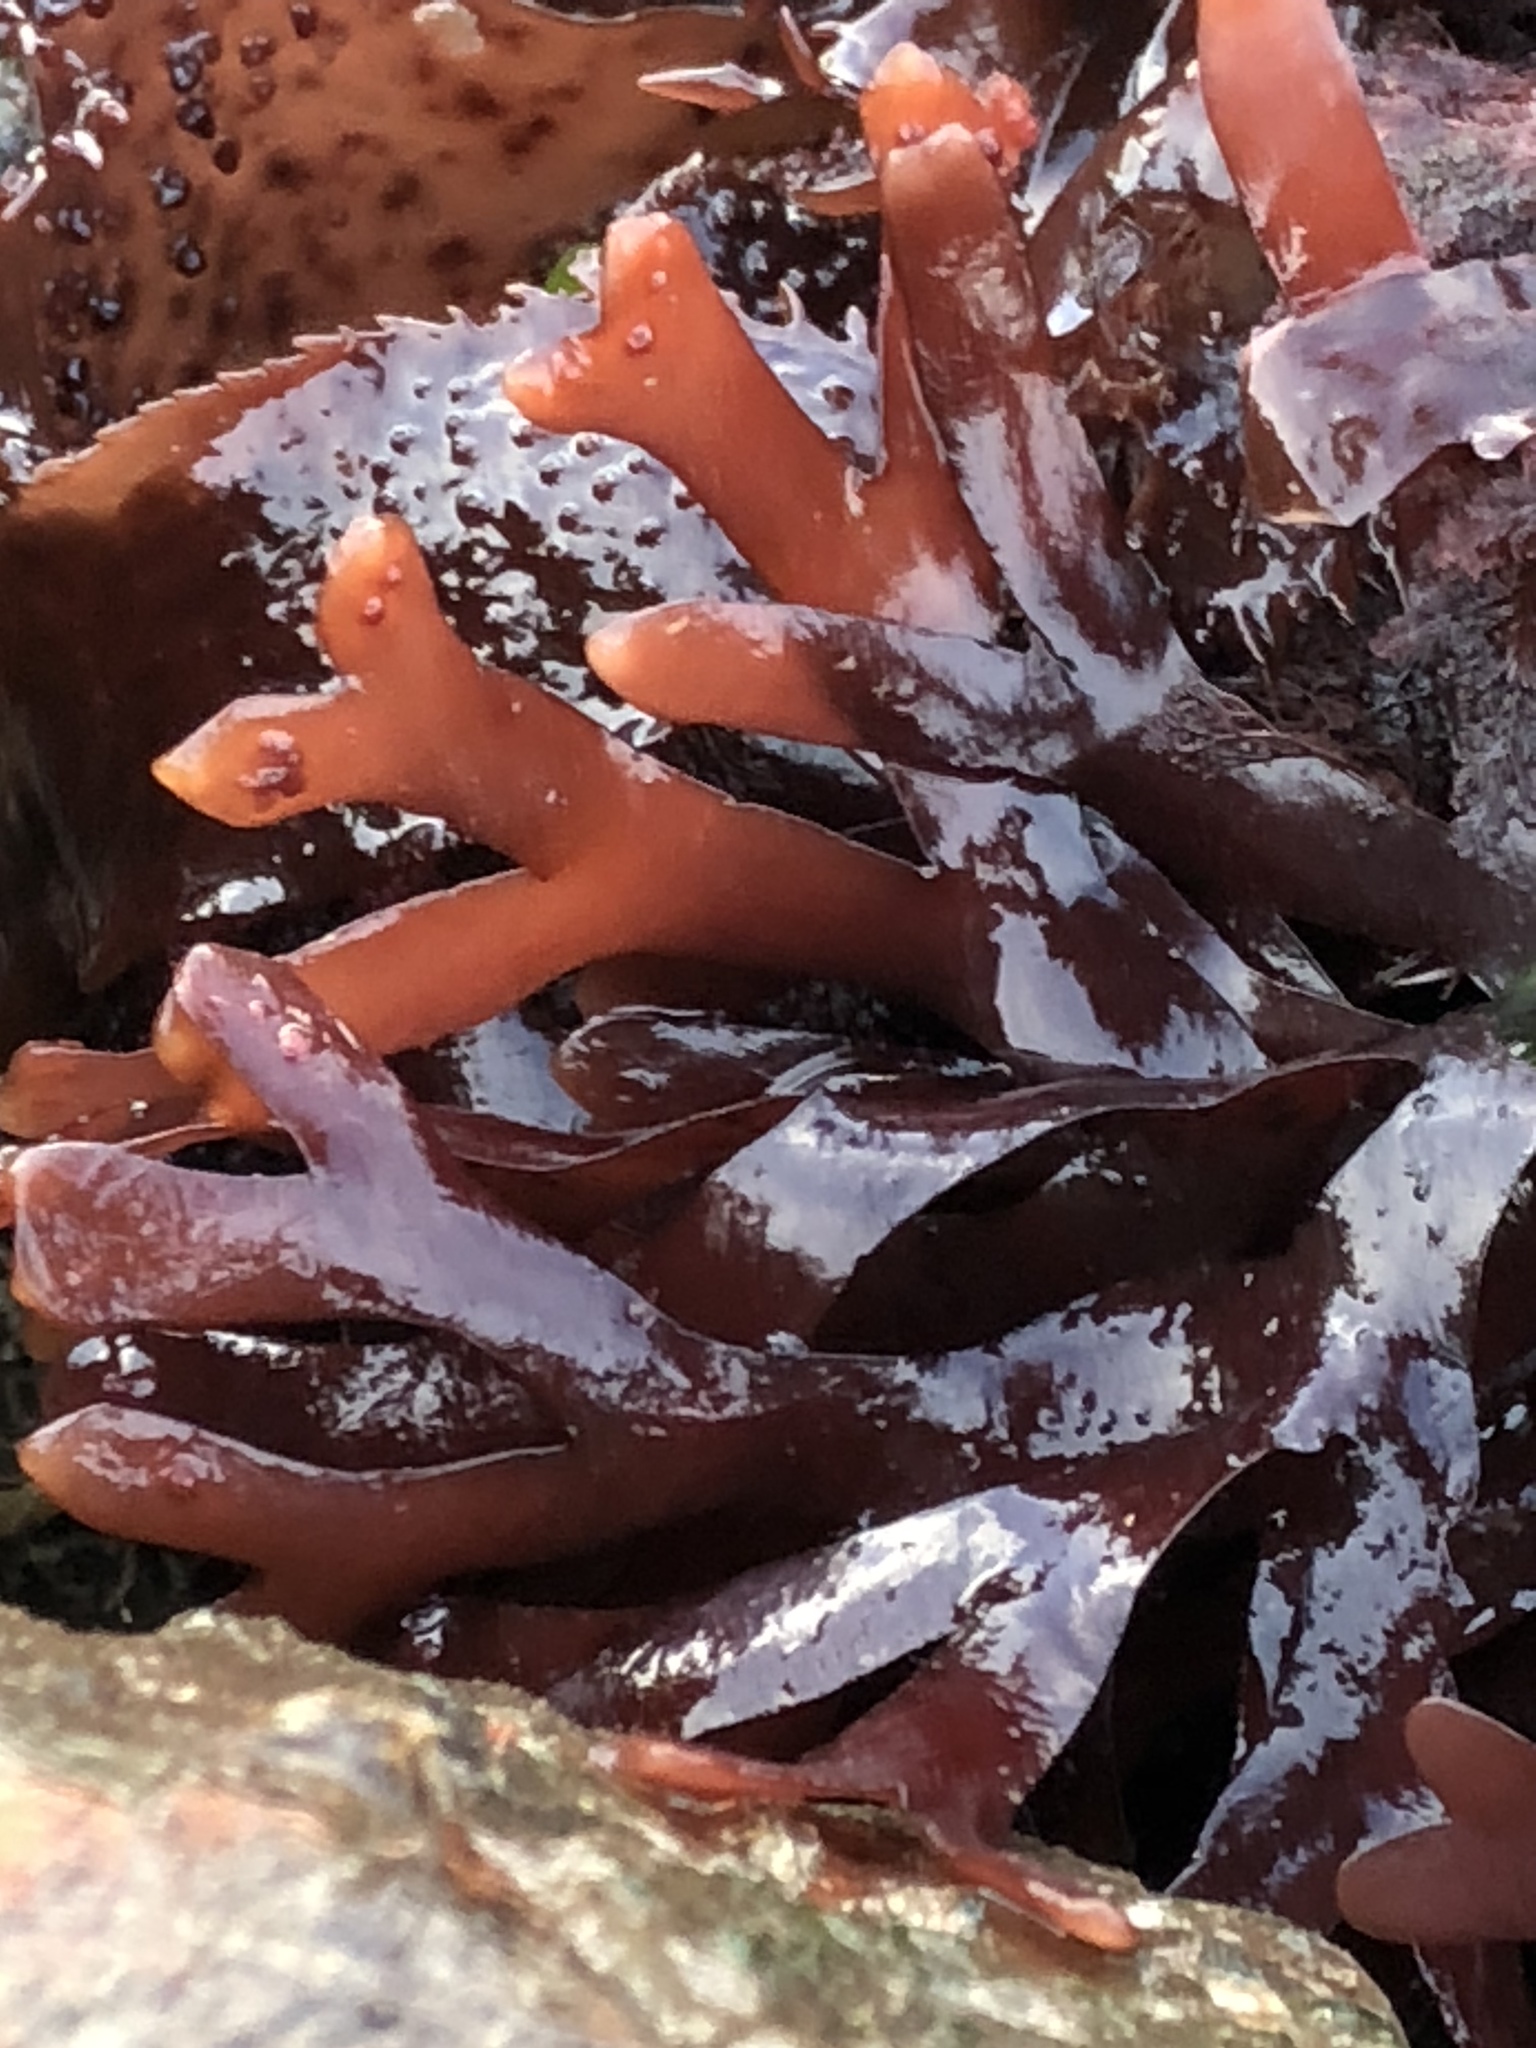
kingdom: Plantae
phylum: Rhodophyta
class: Florideophyceae
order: Gigartinales
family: Phyllophoraceae
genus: Ahnfeltiopsis
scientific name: Ahnfeltiopsis linearis
